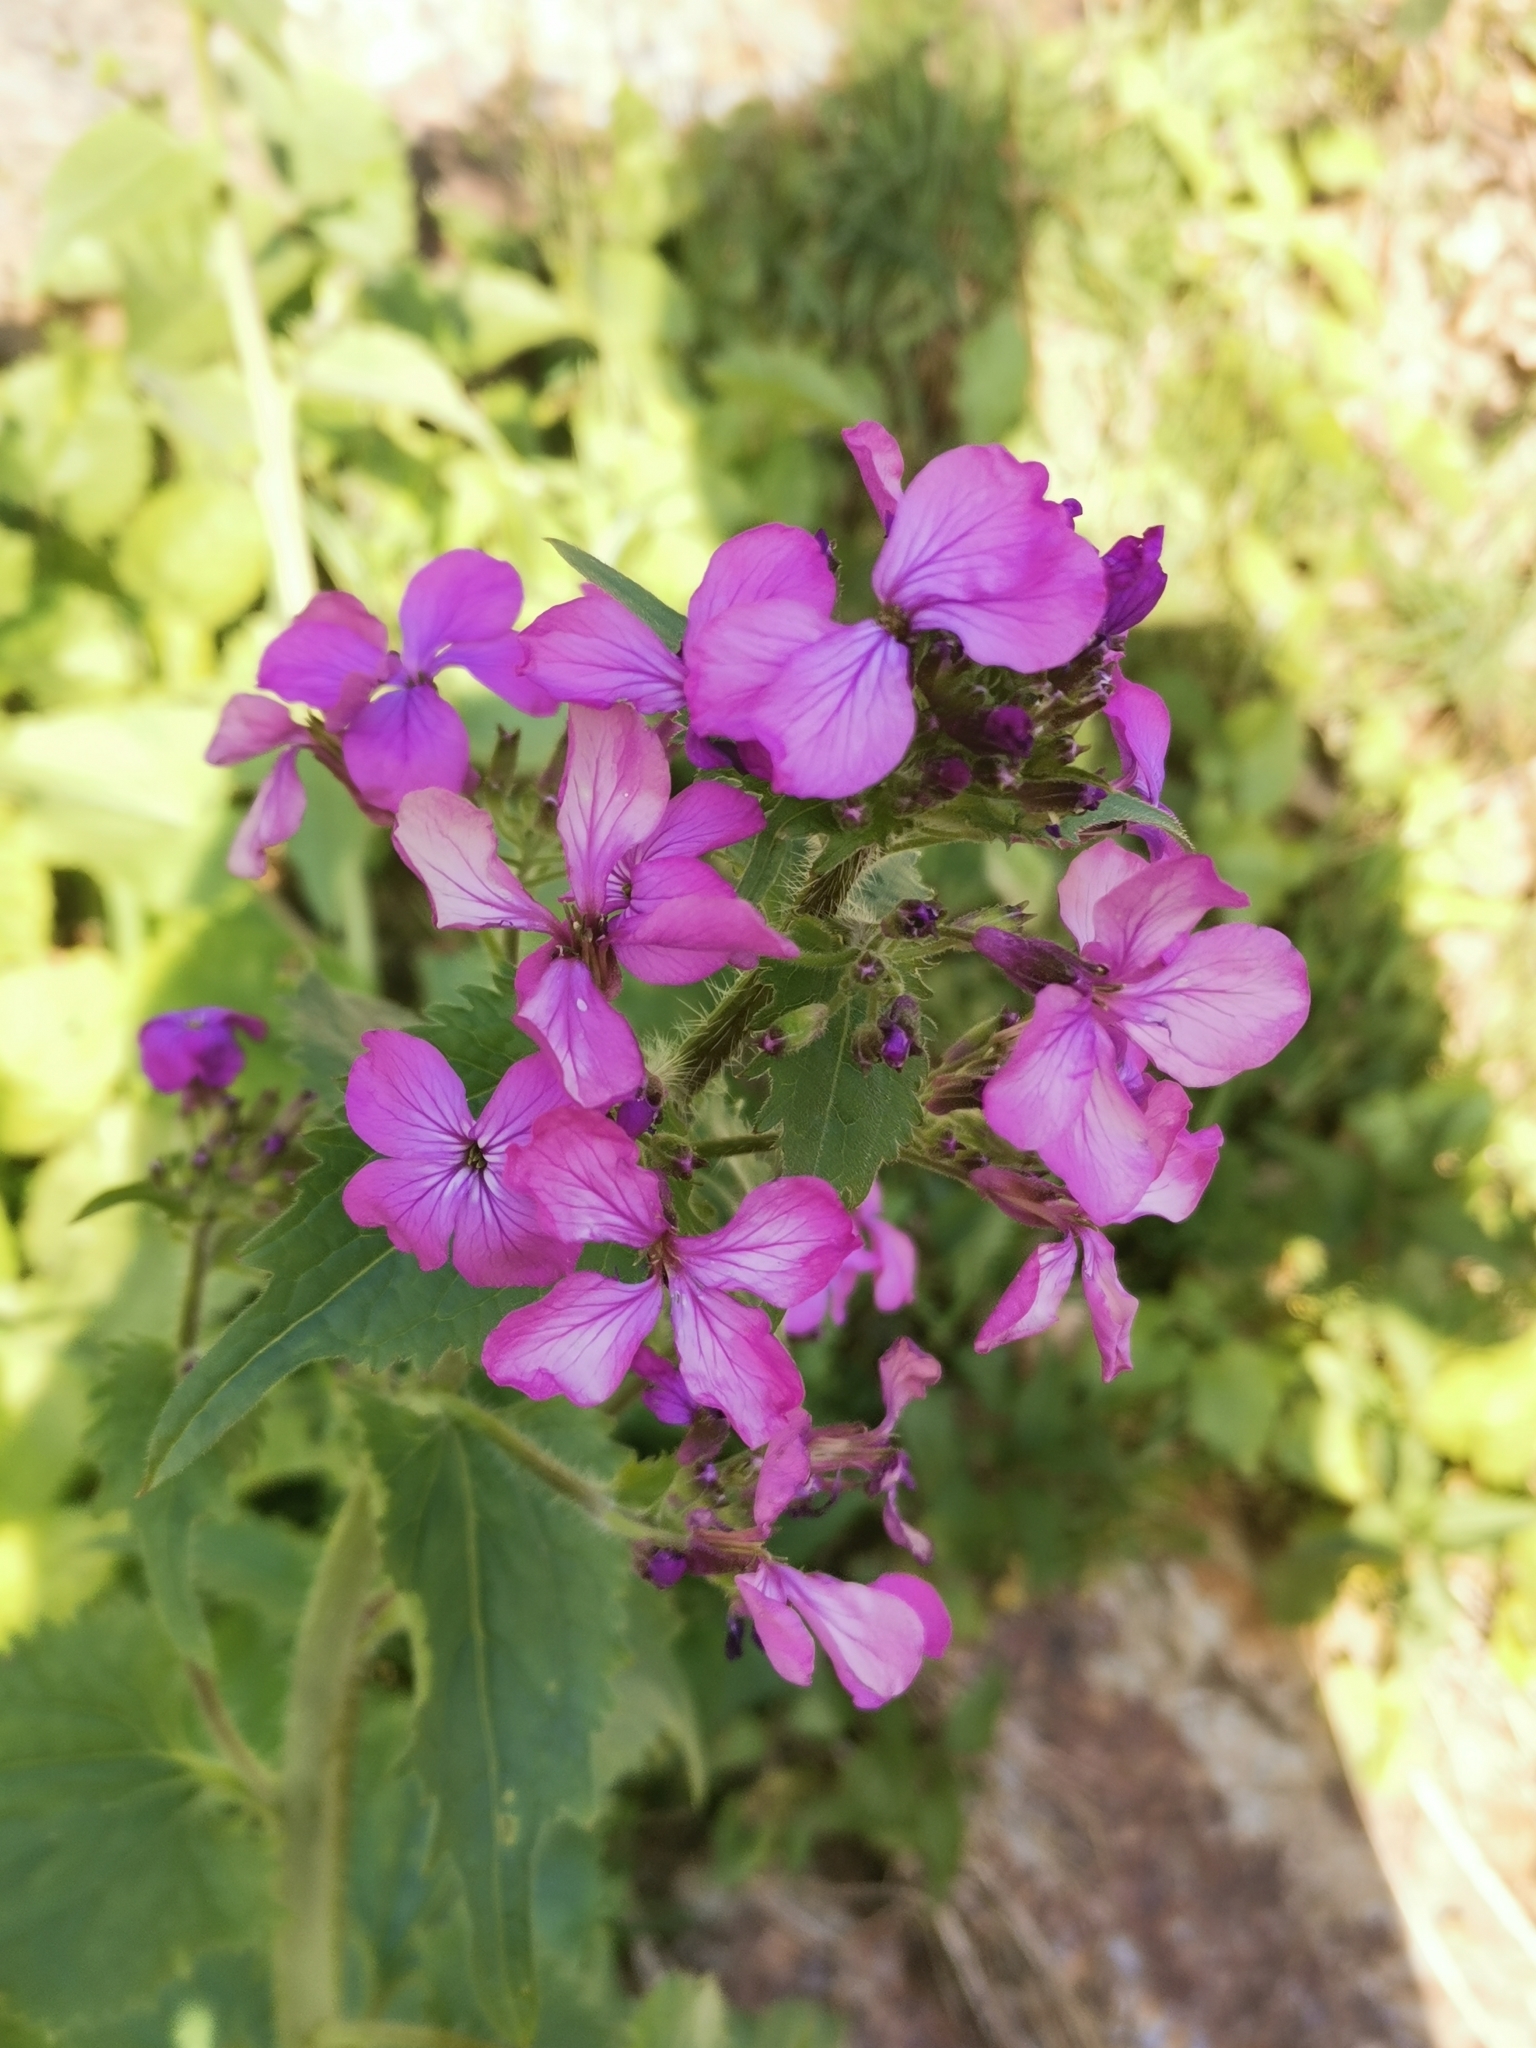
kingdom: Plantae
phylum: Tracheophyta
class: Magnoliopsida
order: Brassicales
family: Brassicaceae
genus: Lunaria
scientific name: Lunaria annua
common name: Honesty
